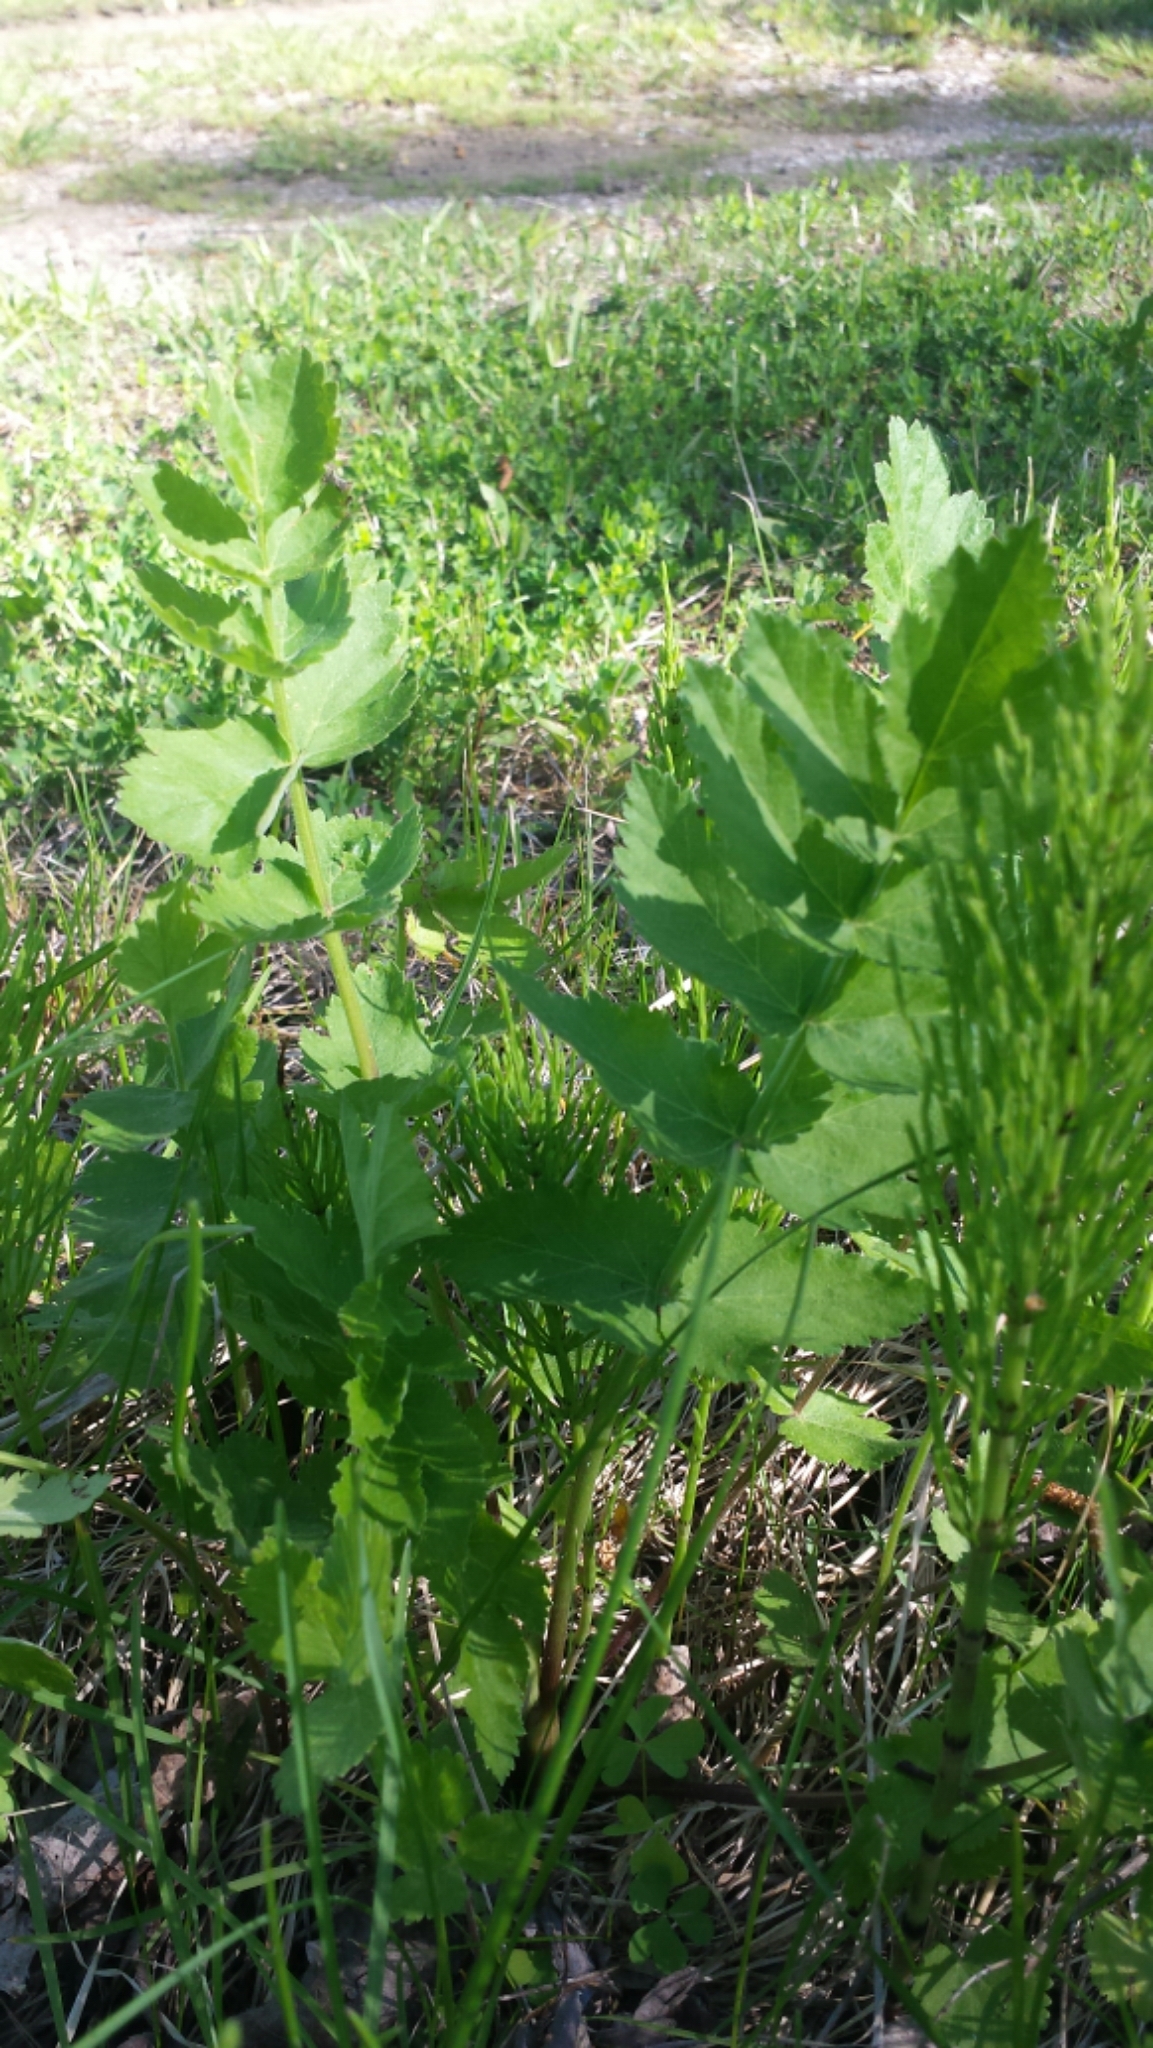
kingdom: Plantae
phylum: Tracheophyta
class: Magnoliopsida
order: Apiales
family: Apiaceae
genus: Pastinaca
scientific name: Pastinaca sativa
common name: Wild parsnip
